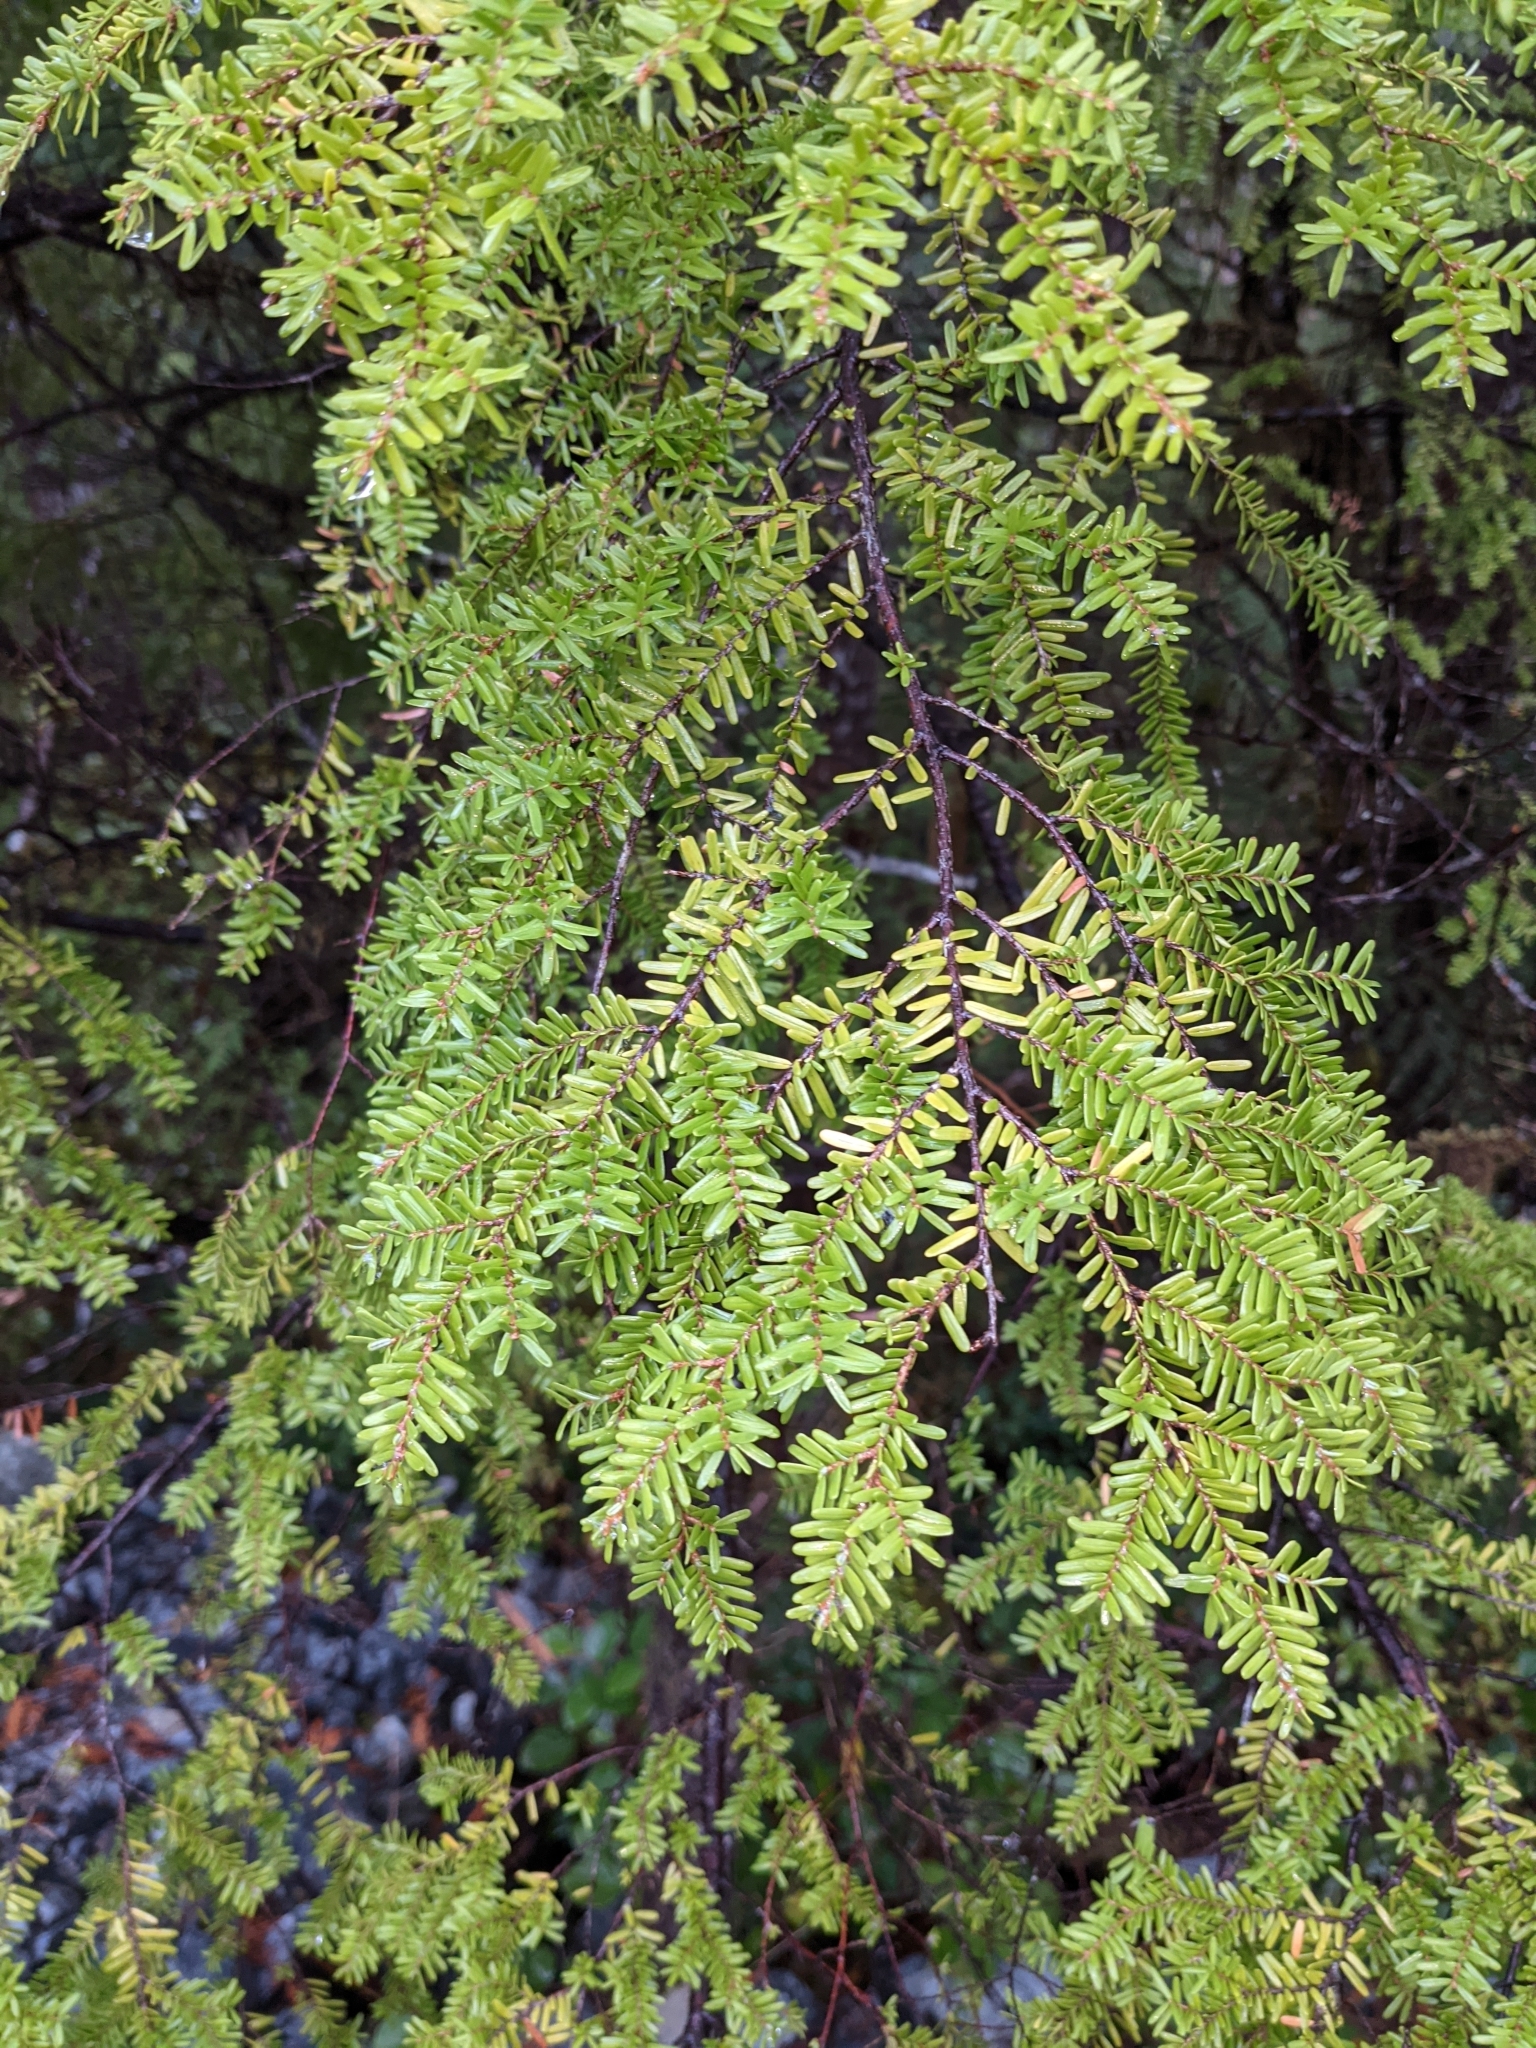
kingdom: Plantae
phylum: Tracheophyta
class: Pinopsida
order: Pinales
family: Pinaceae
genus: Tsuga
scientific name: Tsuga heterophylla
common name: Western hemlock
